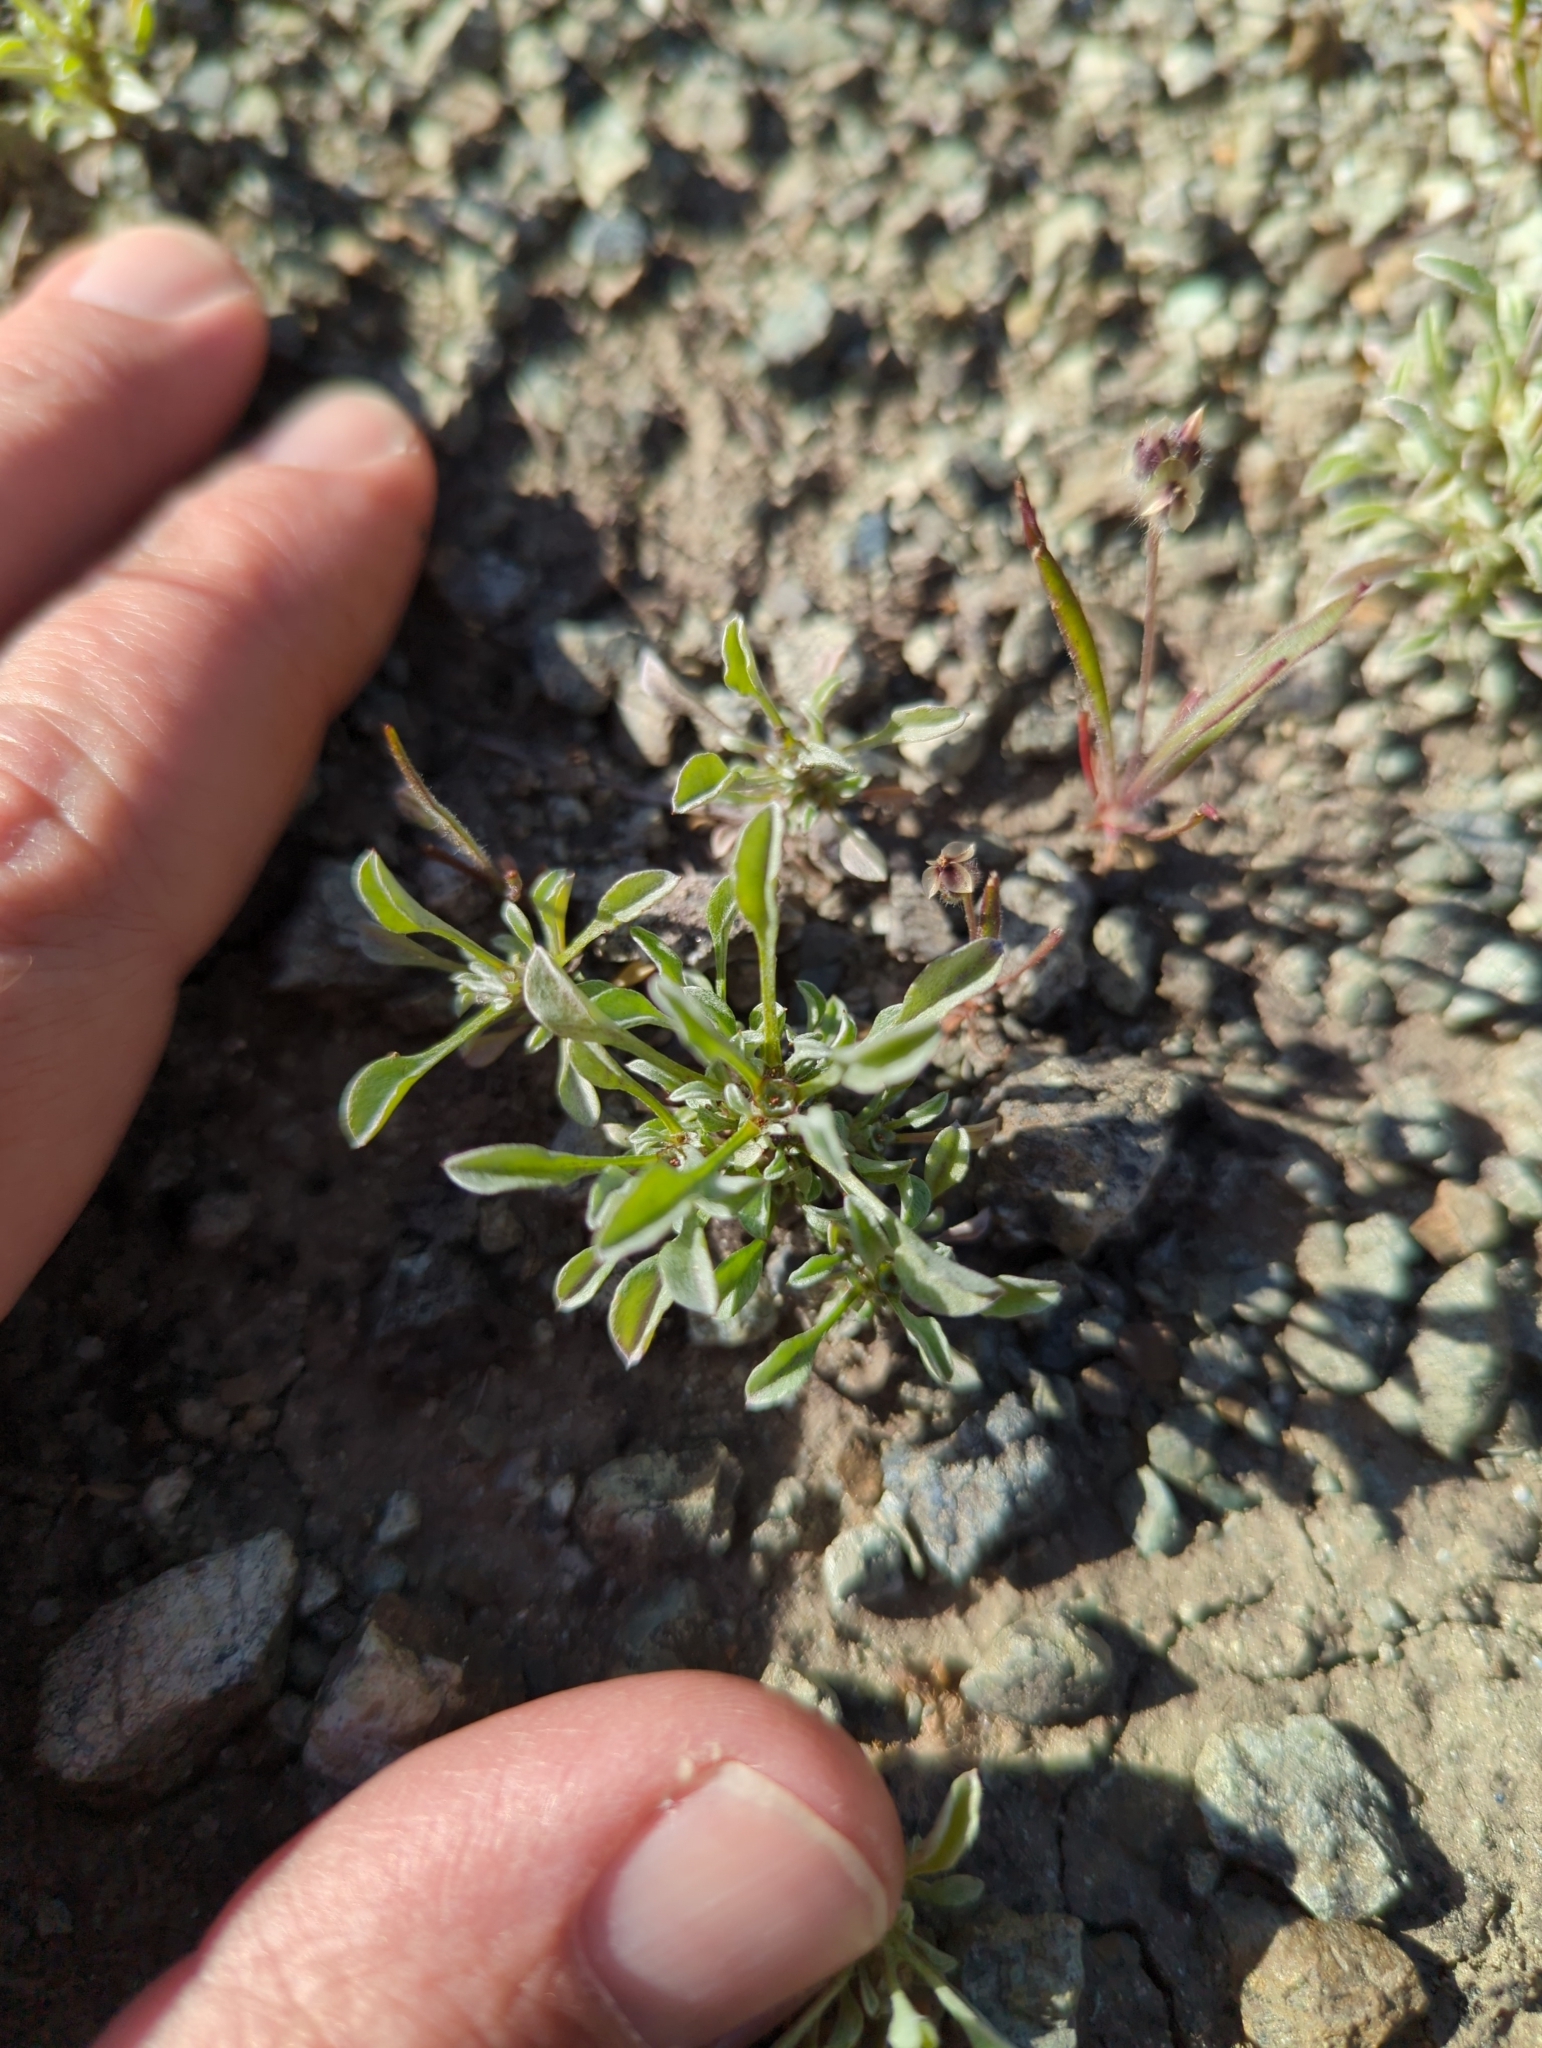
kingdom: Plantae
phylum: Tracheophyta
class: Magnoliopsida
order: Asterales
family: Asteraceae
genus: Hesperevax
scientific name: Hesperevax sparsiflora
